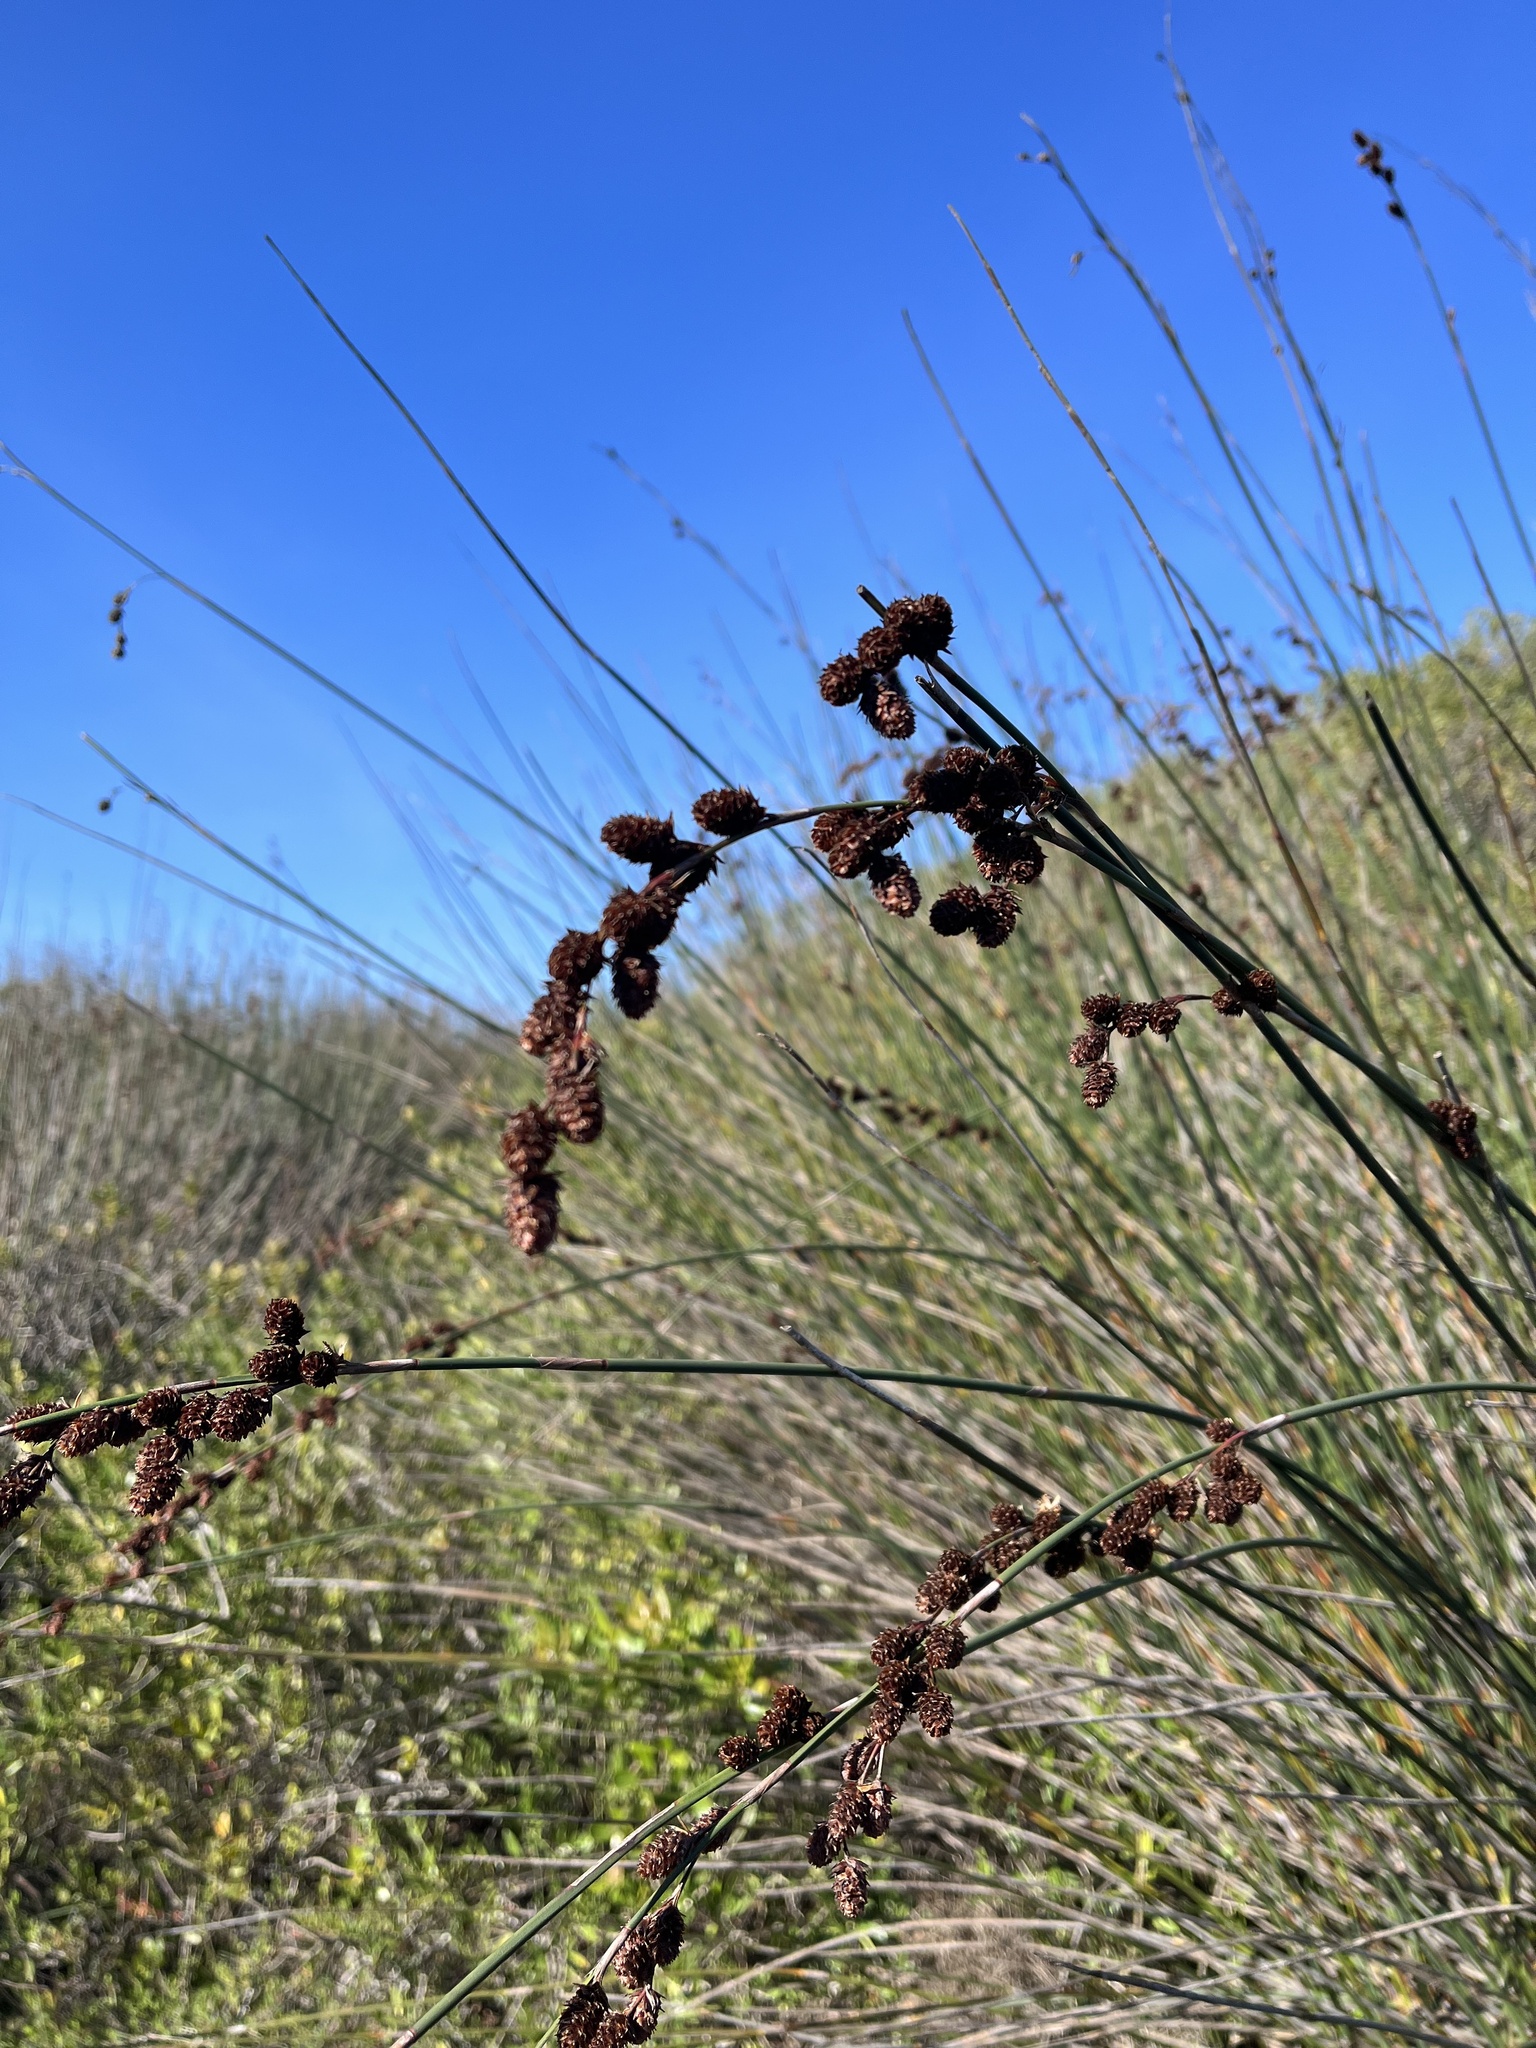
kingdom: Plantae
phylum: Tracheophyta
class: Liliopsida
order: Poales
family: Restionaceae
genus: Thamnochortus
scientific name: Thamnochortus spicigerus
